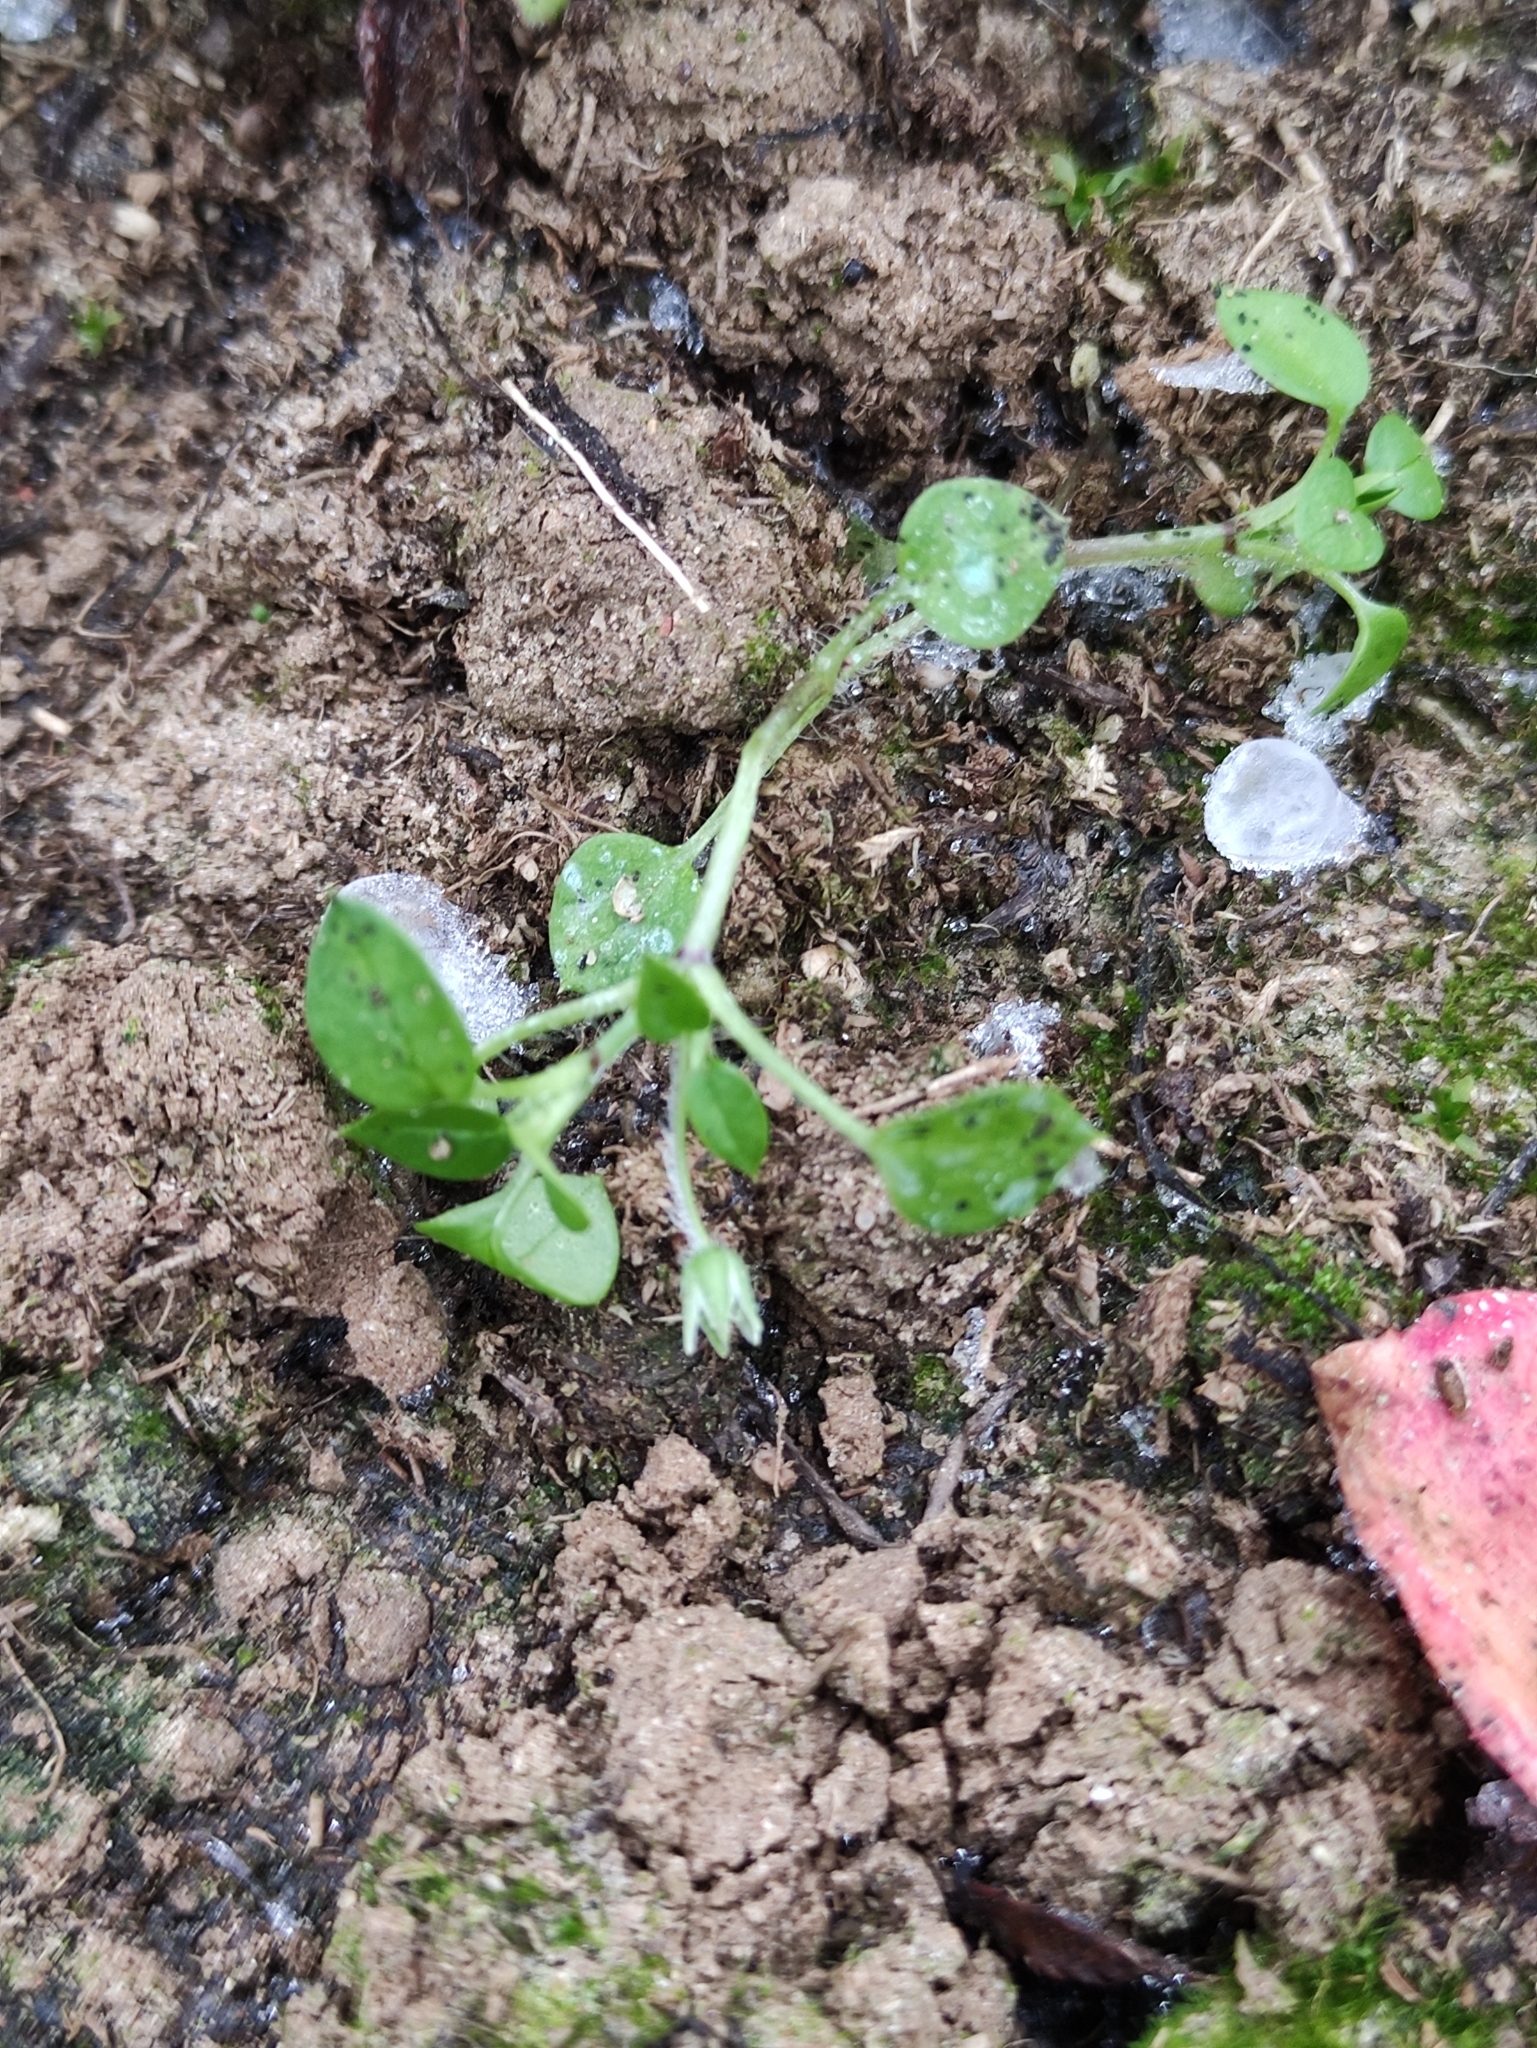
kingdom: Plantae
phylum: Tracheophyta
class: Magnoliopsida
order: Caryophyllales
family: Caryophyllaceae
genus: Moehringia
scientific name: Moehringia trinervia
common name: Three-nerved sandwort
